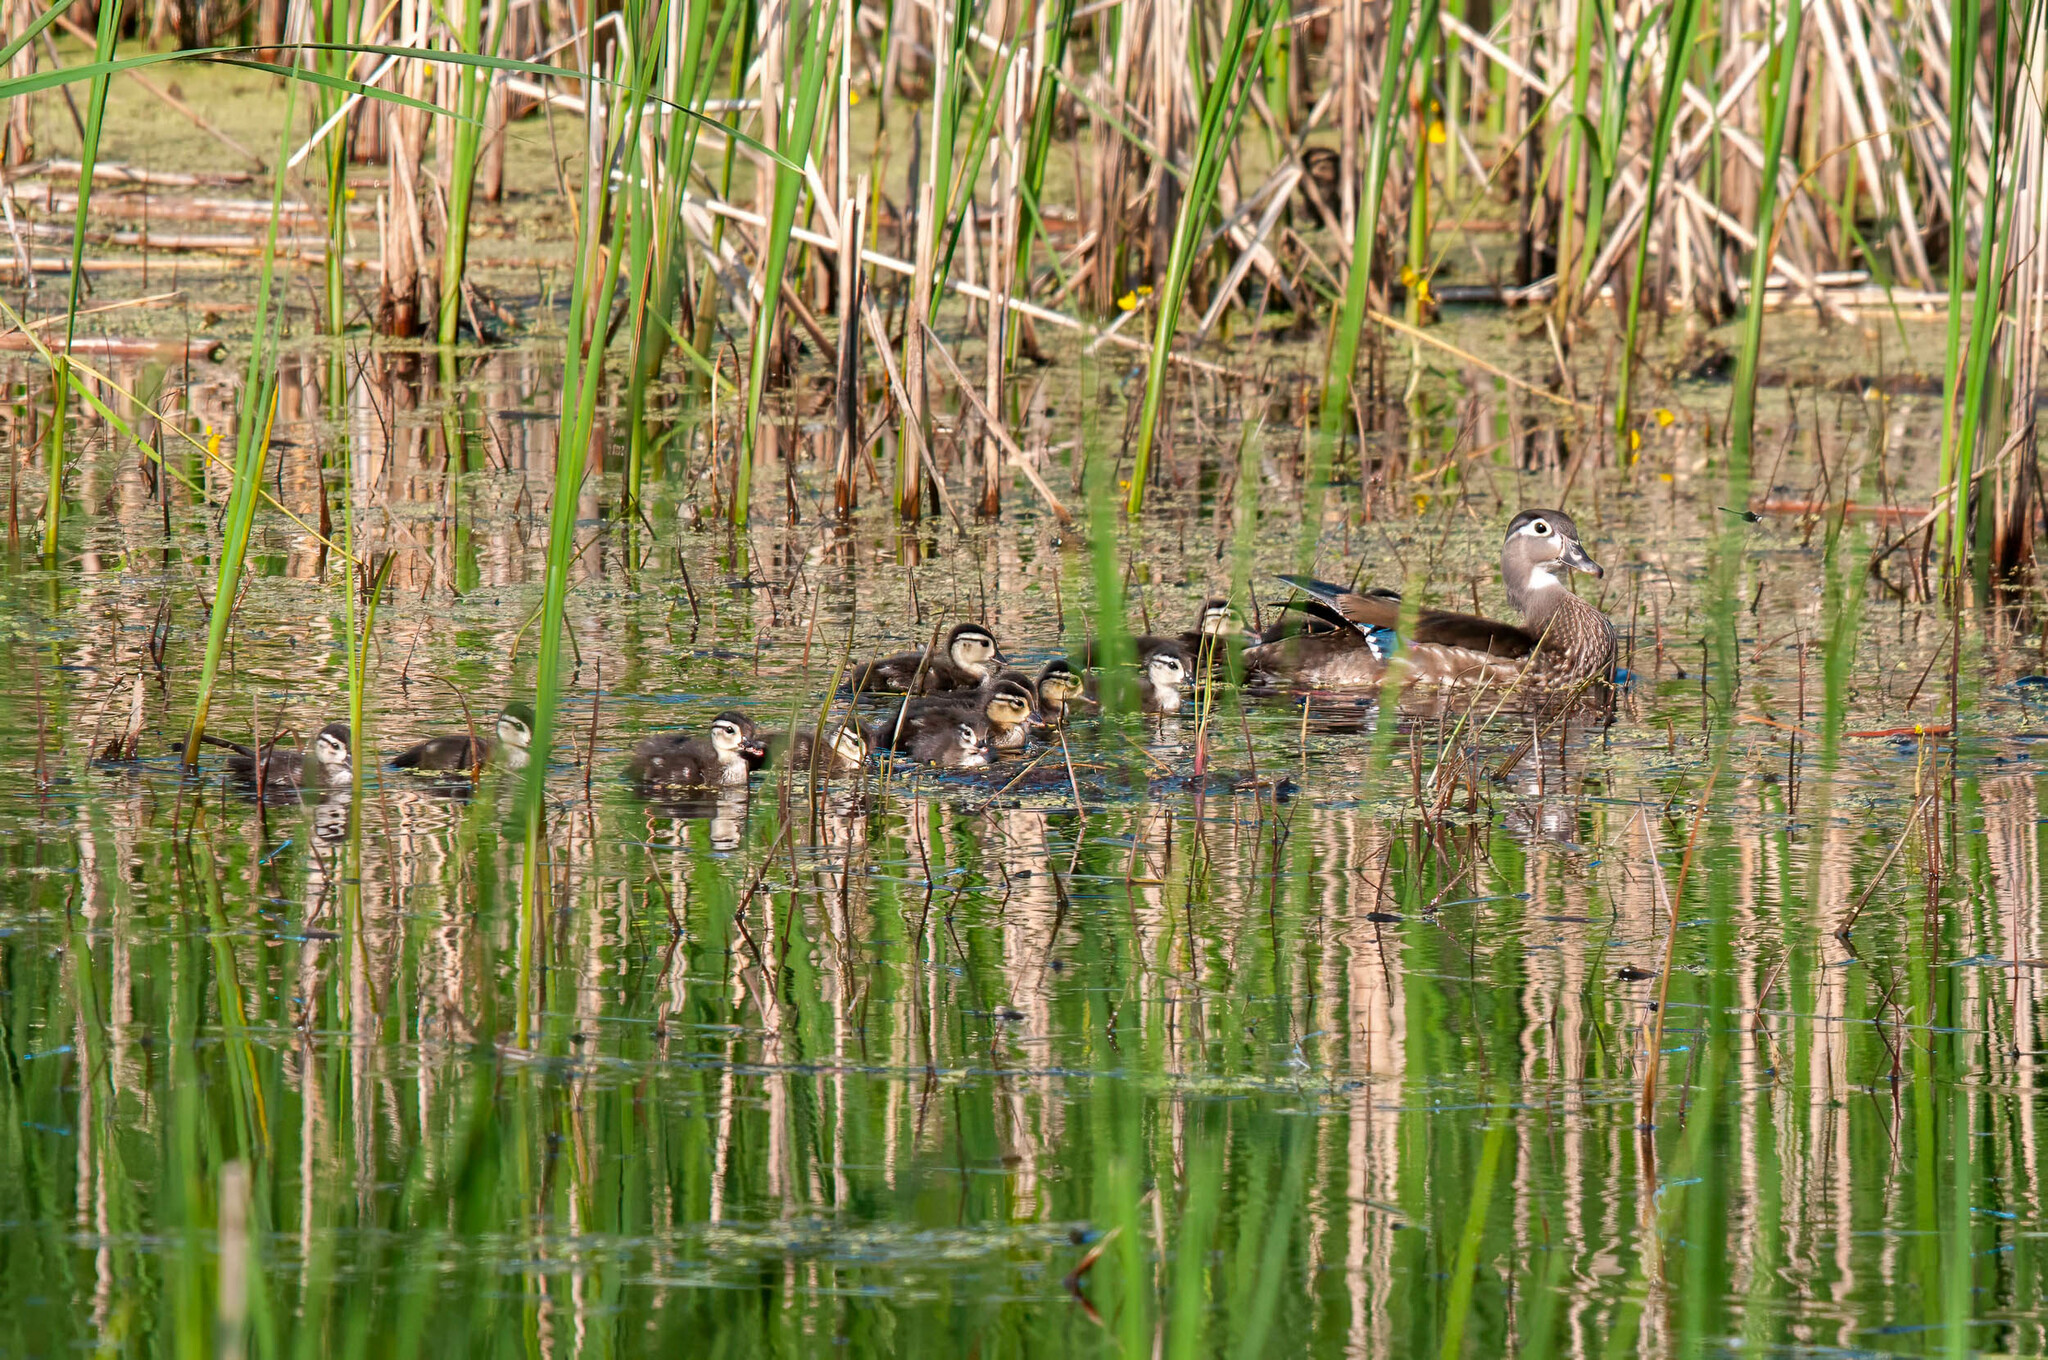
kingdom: Animalia
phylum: Chordata
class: Aves
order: Anseriformes
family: Anatidae
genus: Aix
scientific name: Aix sponsa
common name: Wood duck
